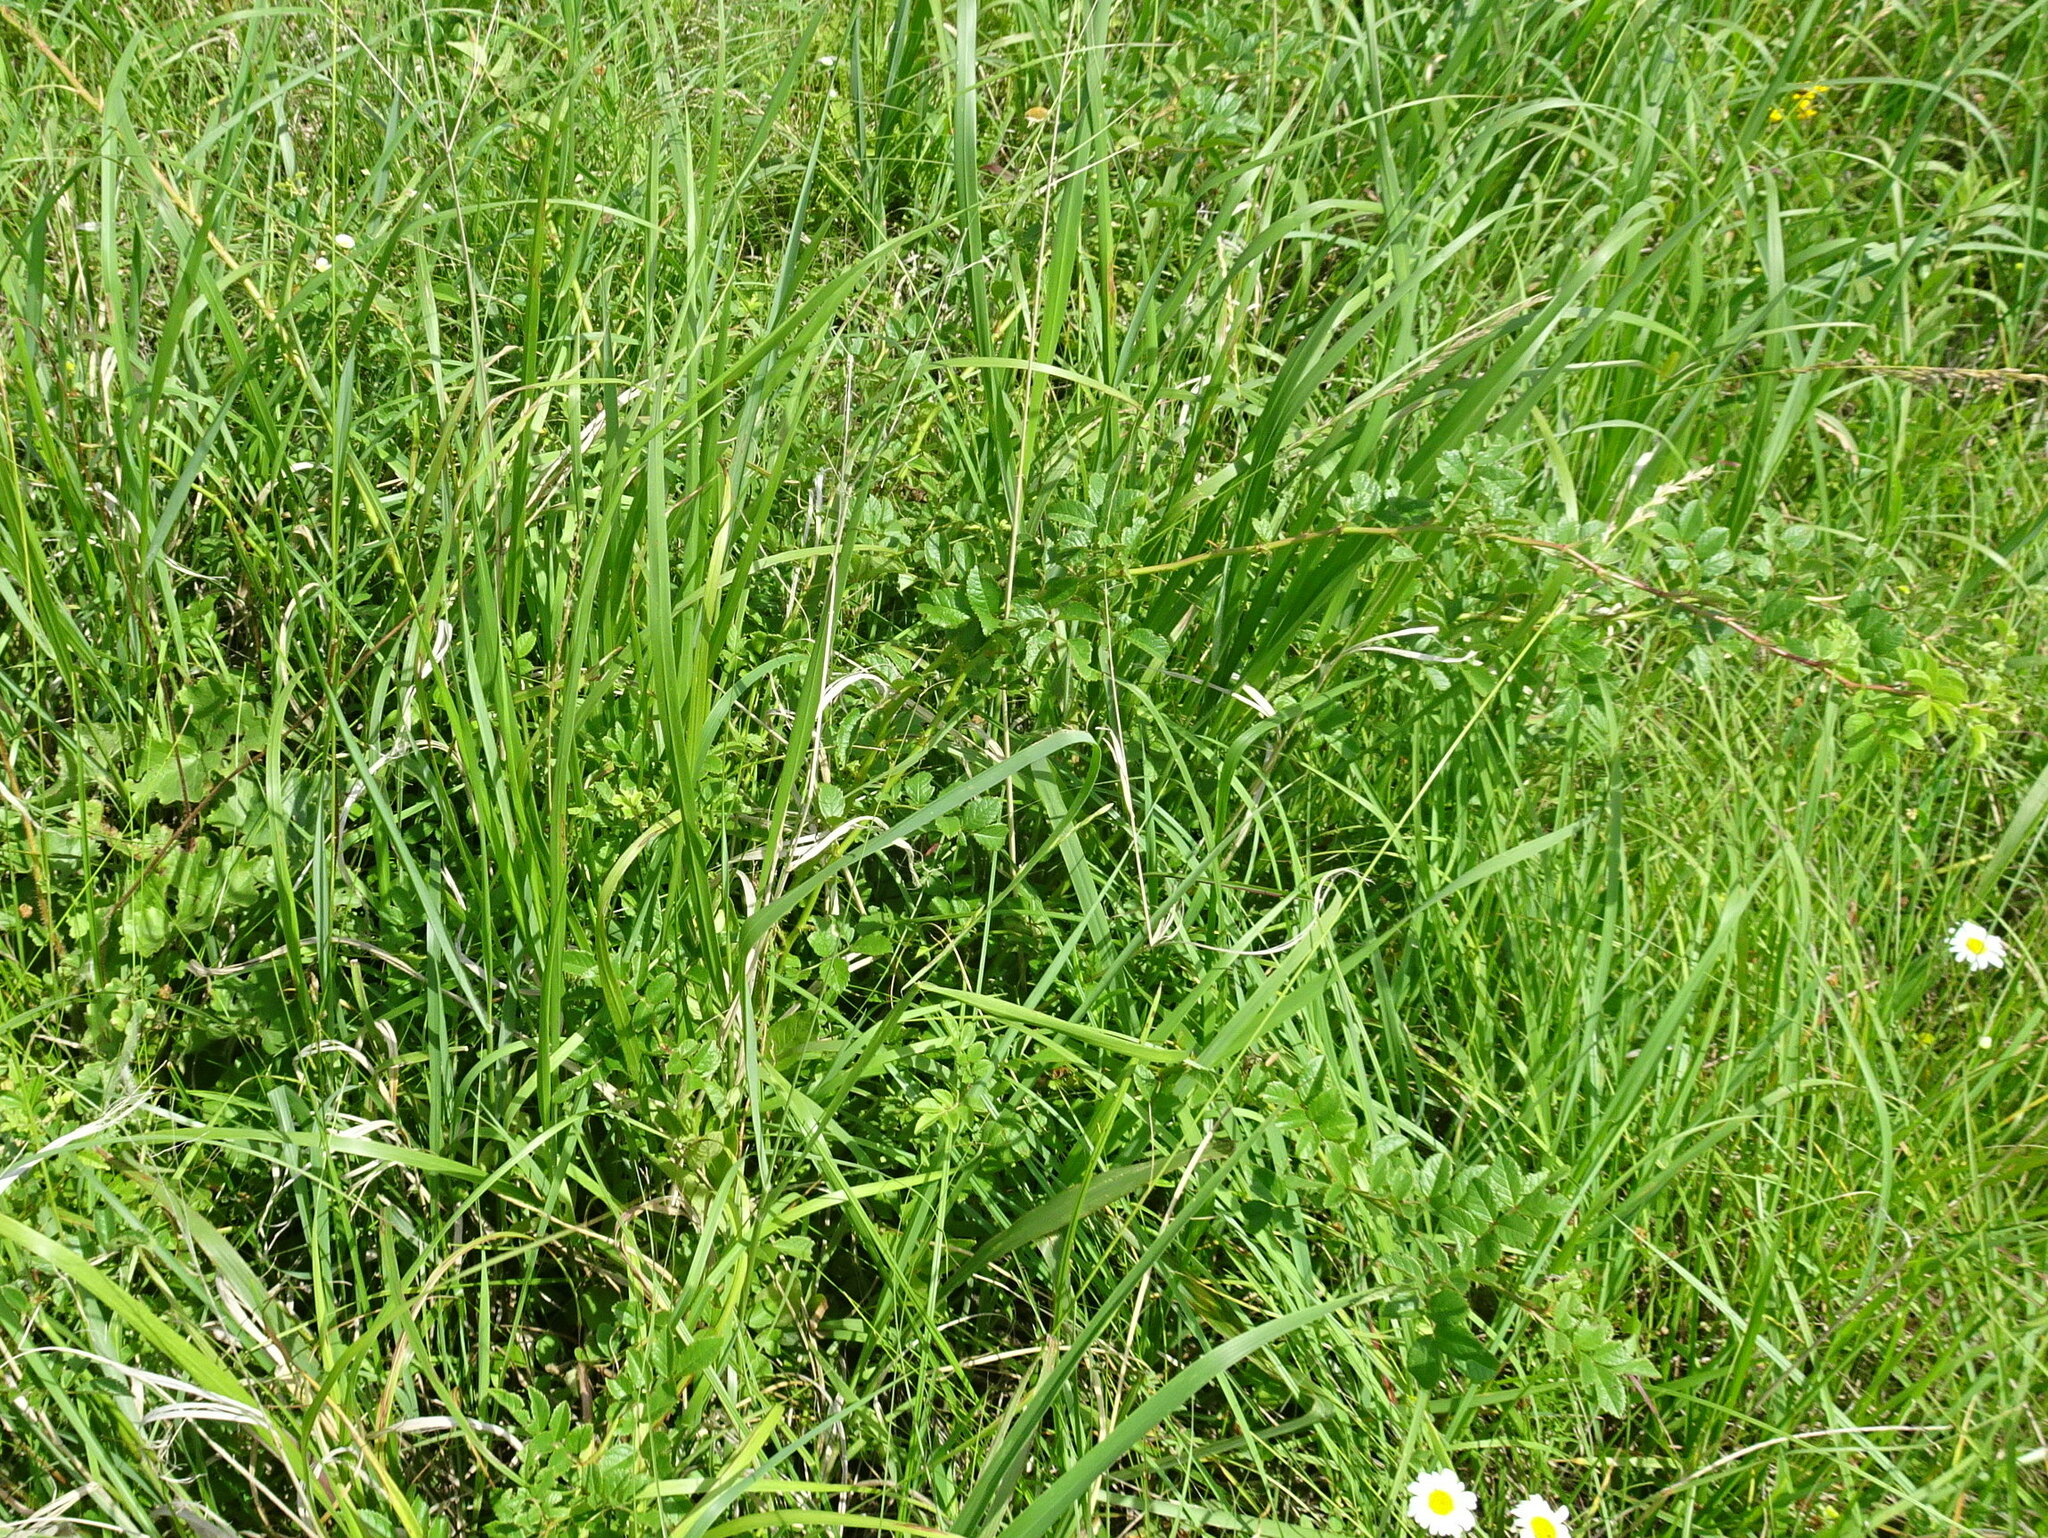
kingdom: Plantae
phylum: Tracheophyta
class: Magnoliopsida
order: Rosales
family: Rosaceae
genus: Rosa
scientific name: Rosa multiflora
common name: Multiflora rose
